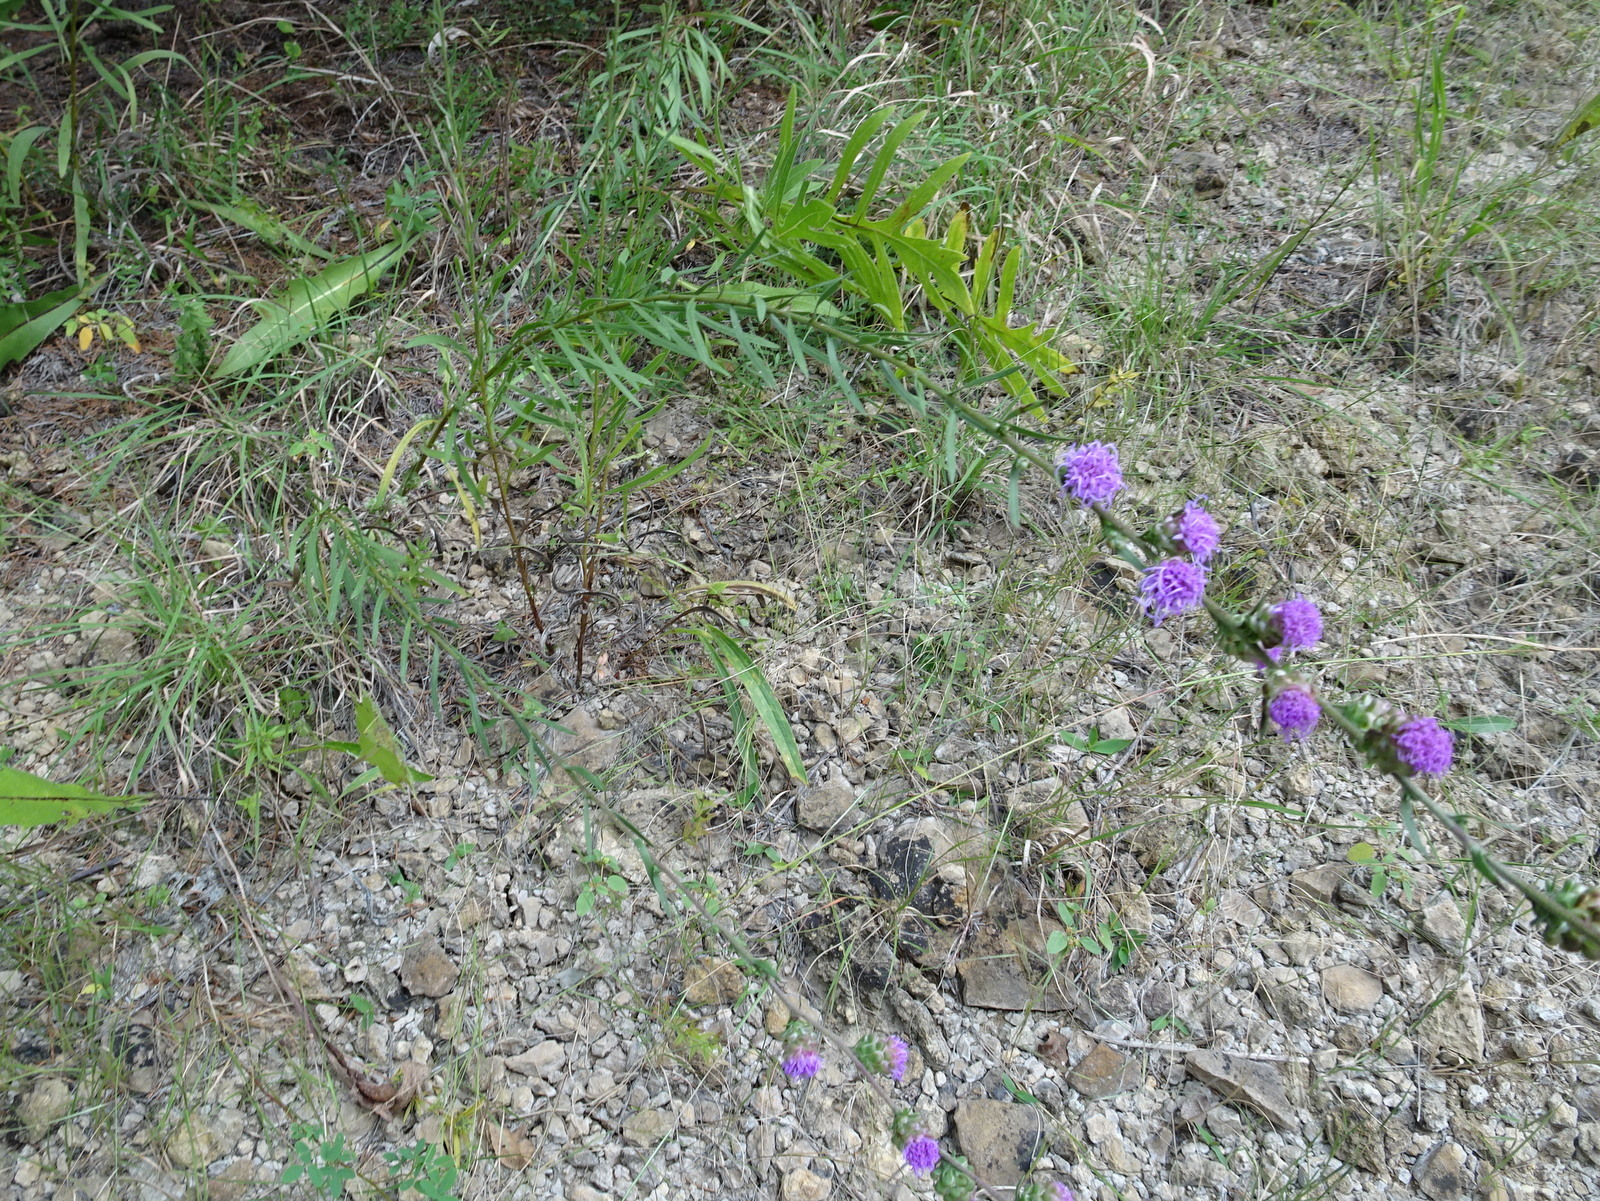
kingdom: Plantae
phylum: Tracheophyta
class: Magnoliopsida
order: Asterales
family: Asteraceae
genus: Liatris
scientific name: Liatris aspera
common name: Lacerate blazing-star
